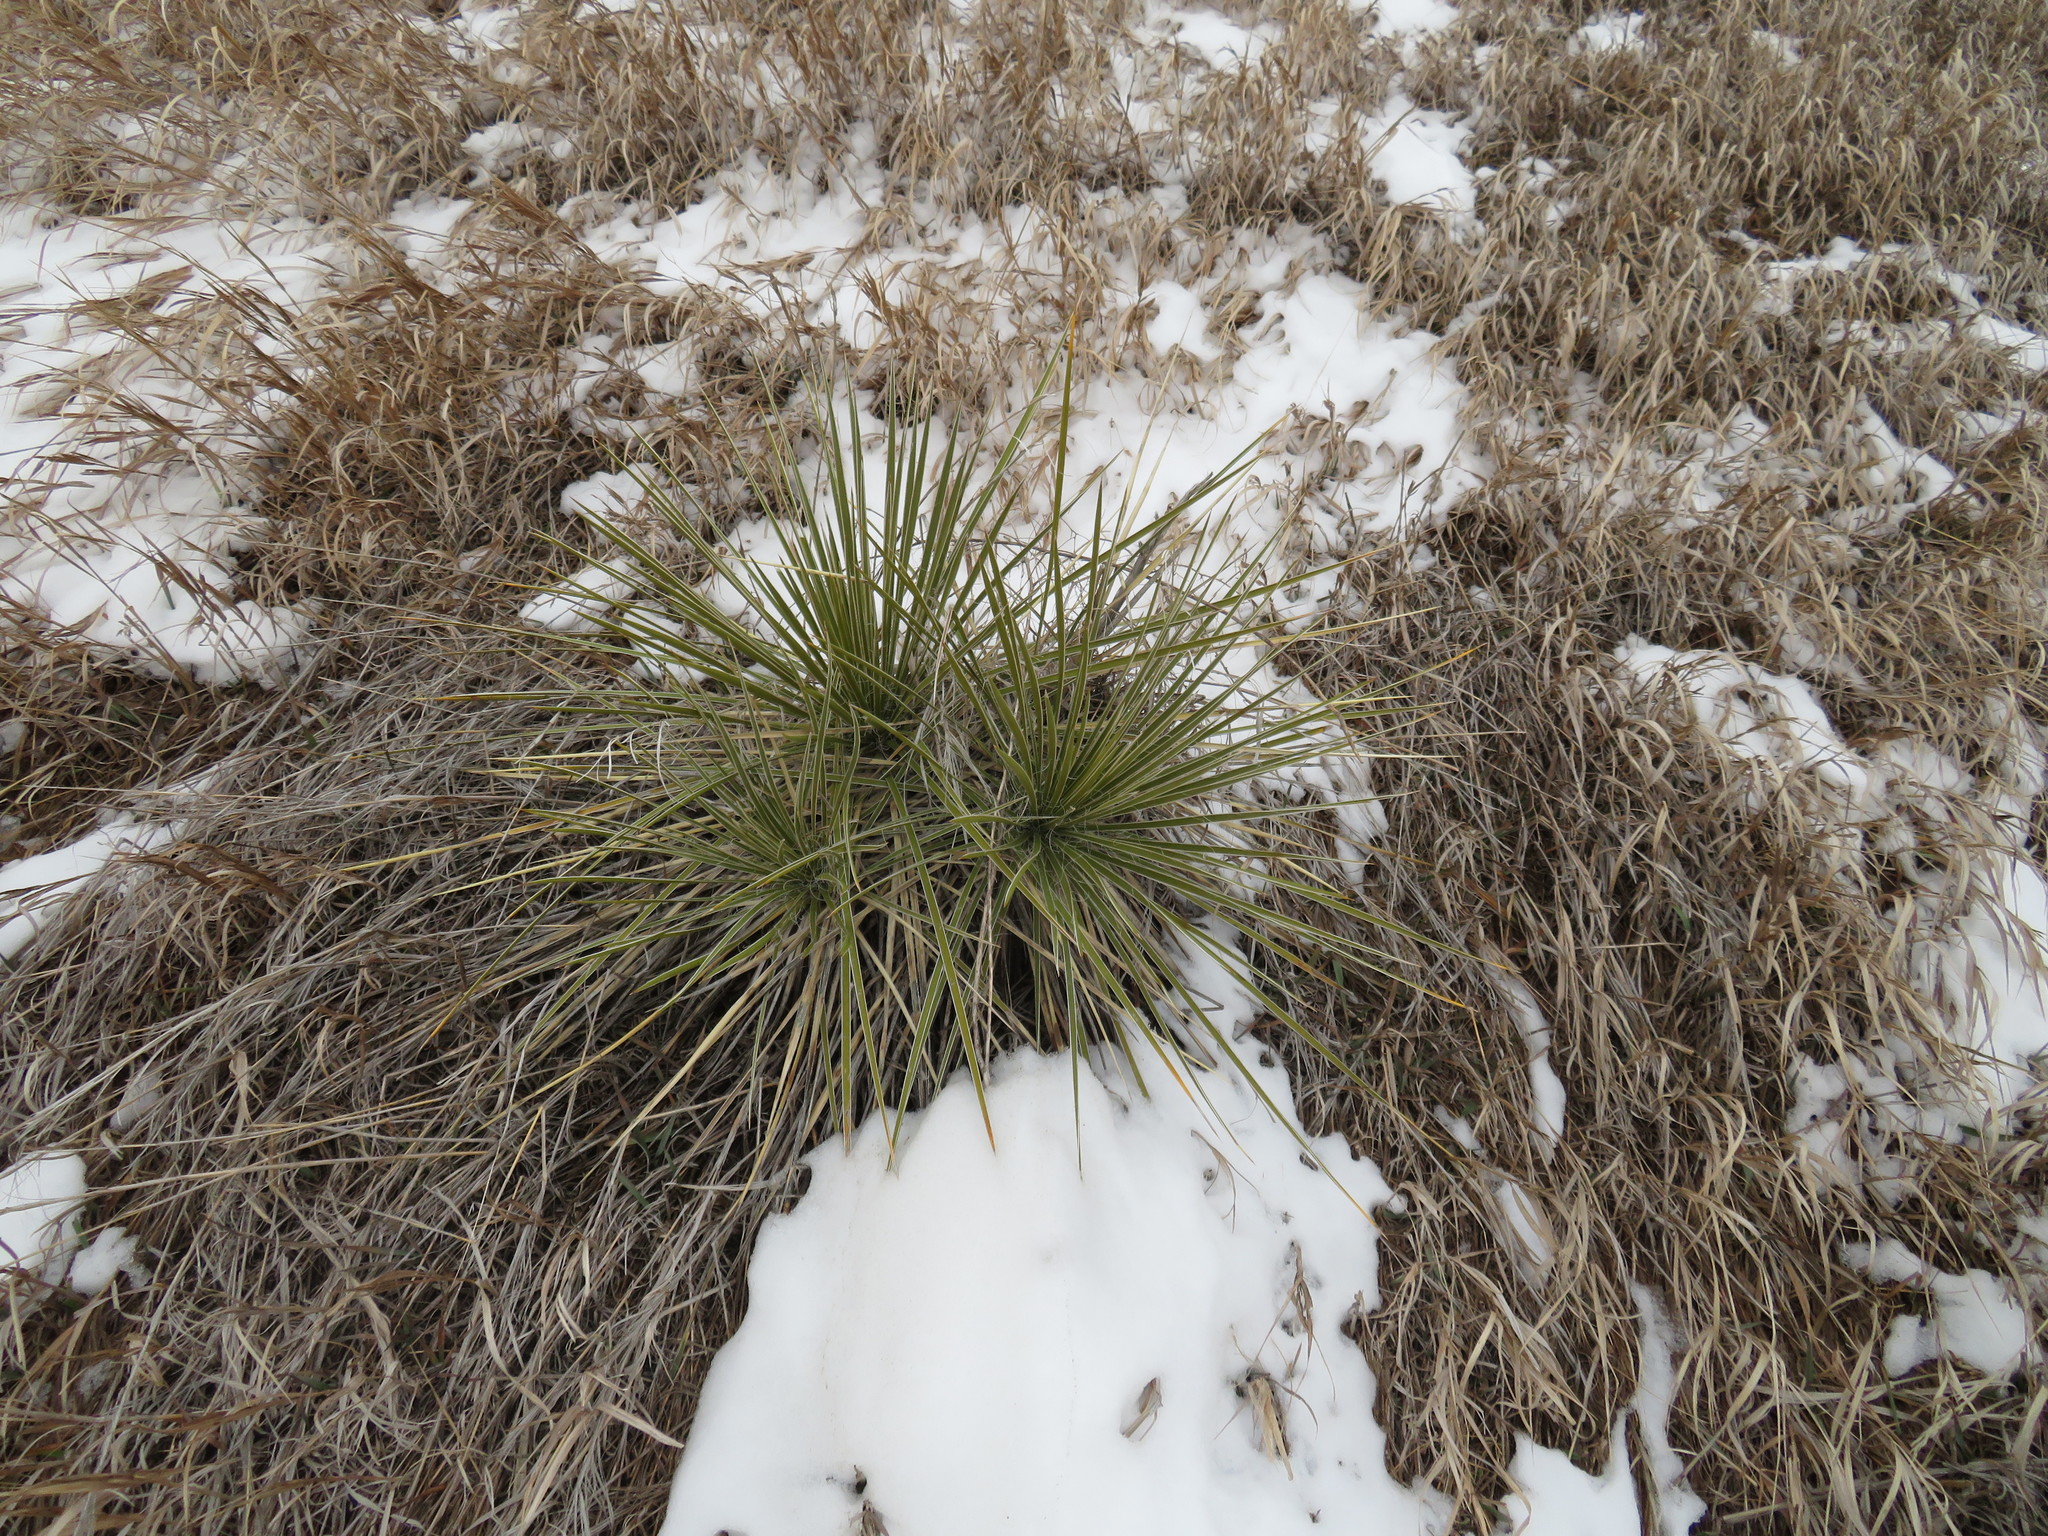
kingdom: Plantae
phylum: Tracheophyta
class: Liliopsida
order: Asparagales
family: Asparagaceae
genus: Yucca
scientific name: Yucca glauca
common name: Great plains yucca
